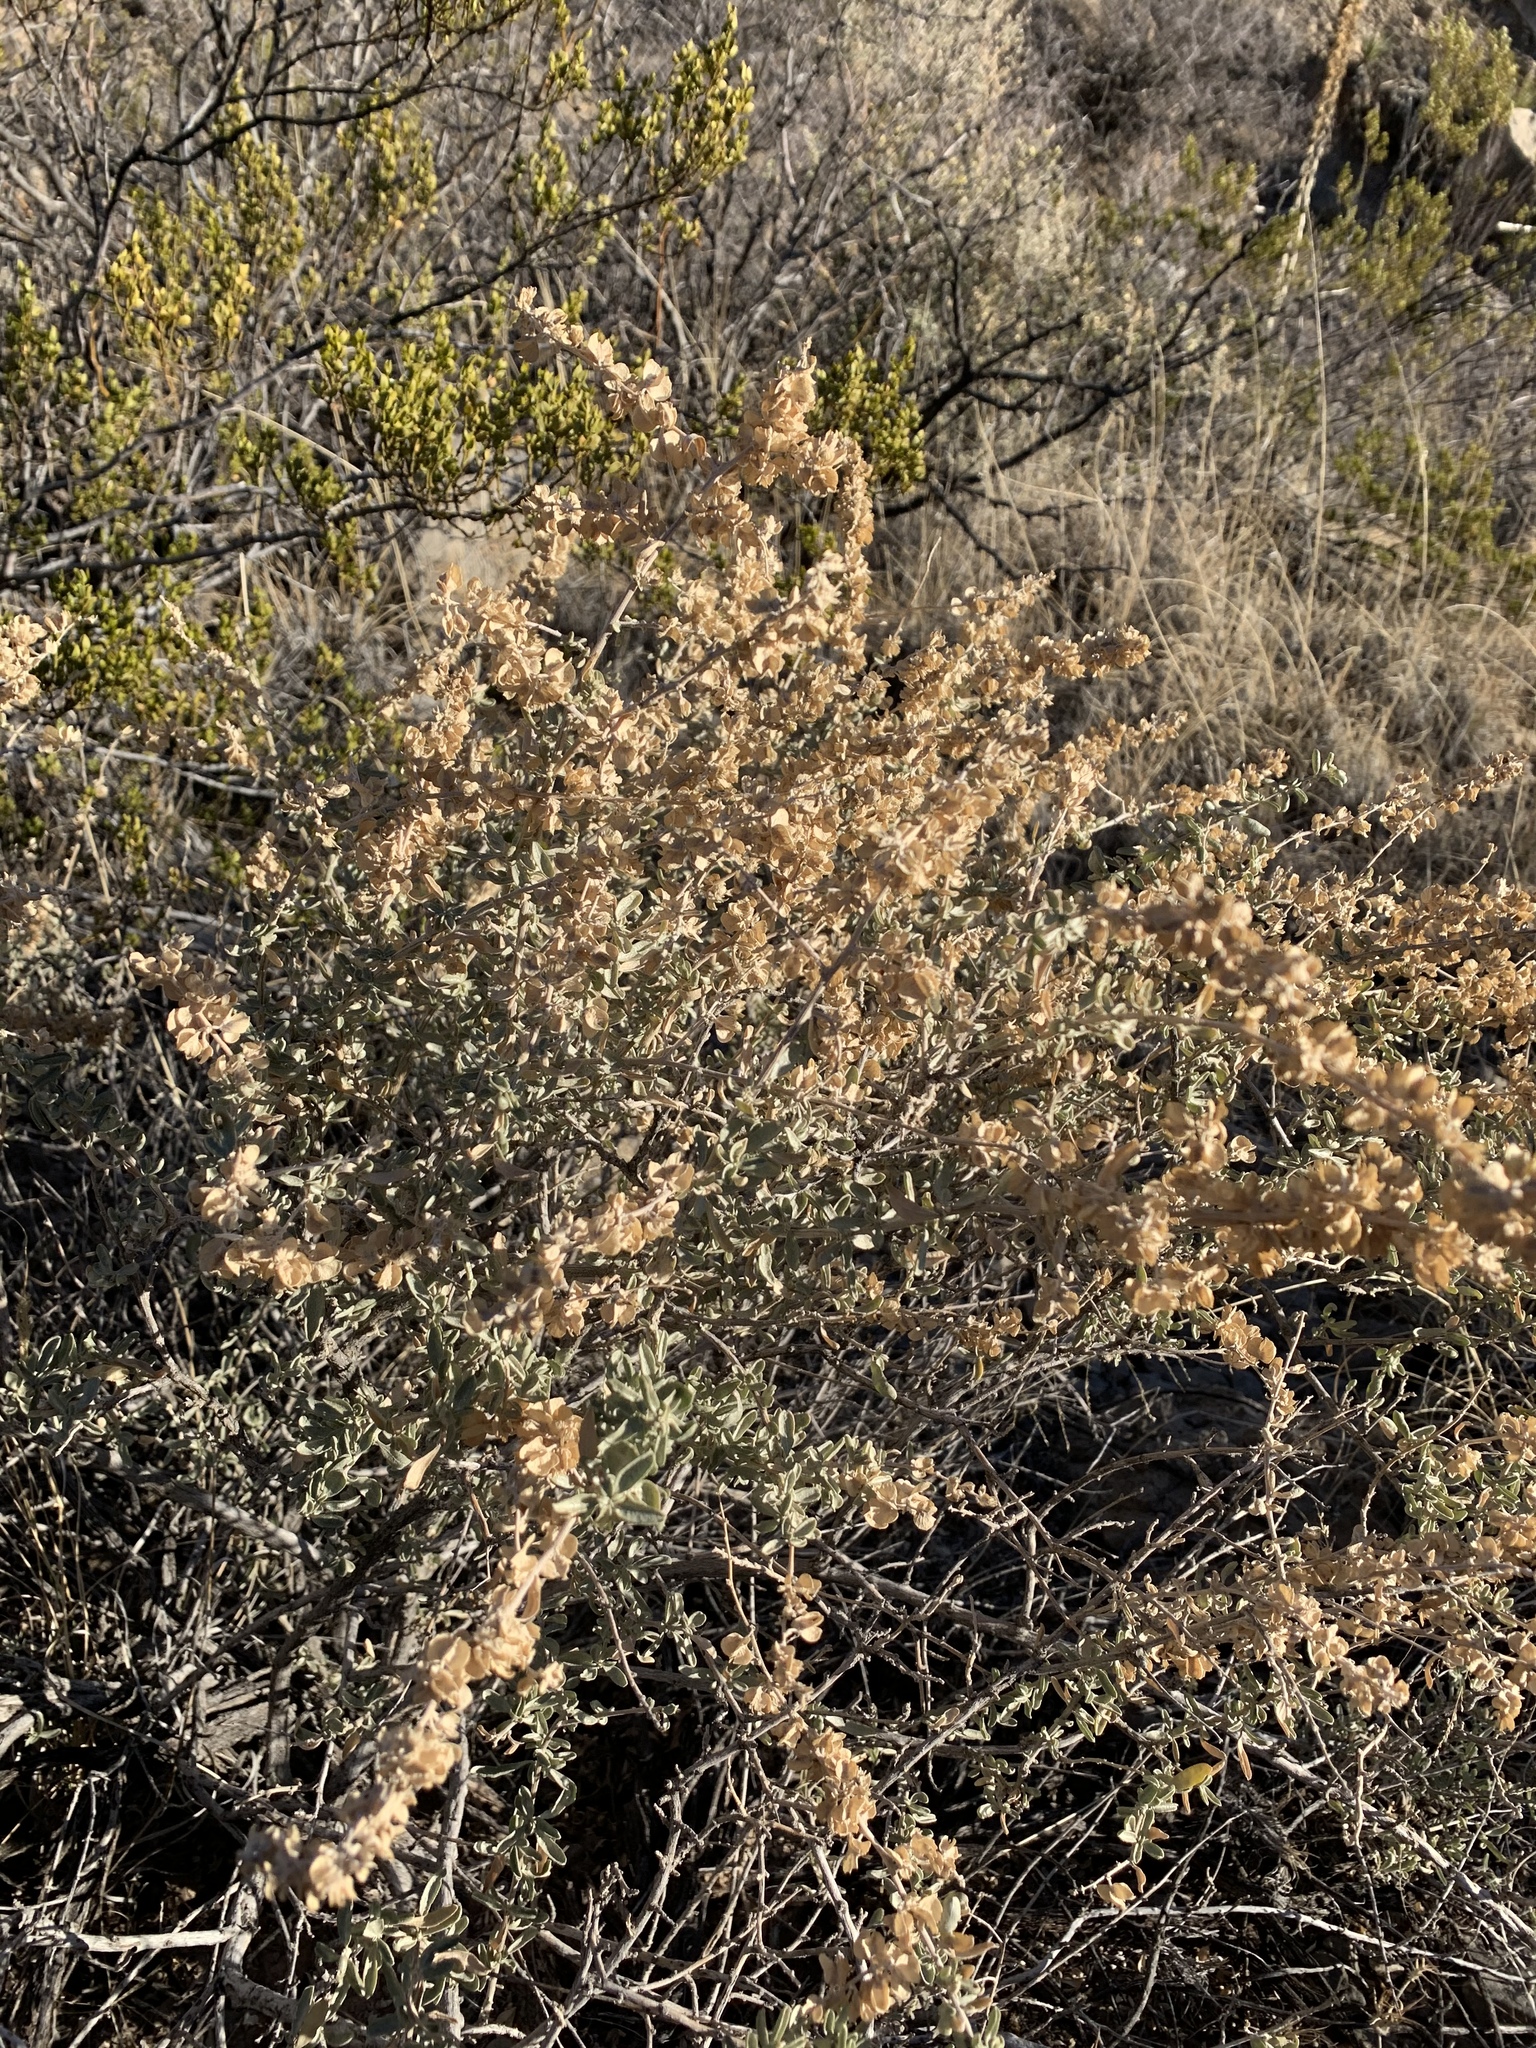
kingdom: Plantae
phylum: Tracheophyta
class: Magnoliopsida
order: Caryophyllales
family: Amaranthaceae
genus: Atriplex
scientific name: Atriplex canescens
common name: Four-wing saltbush
